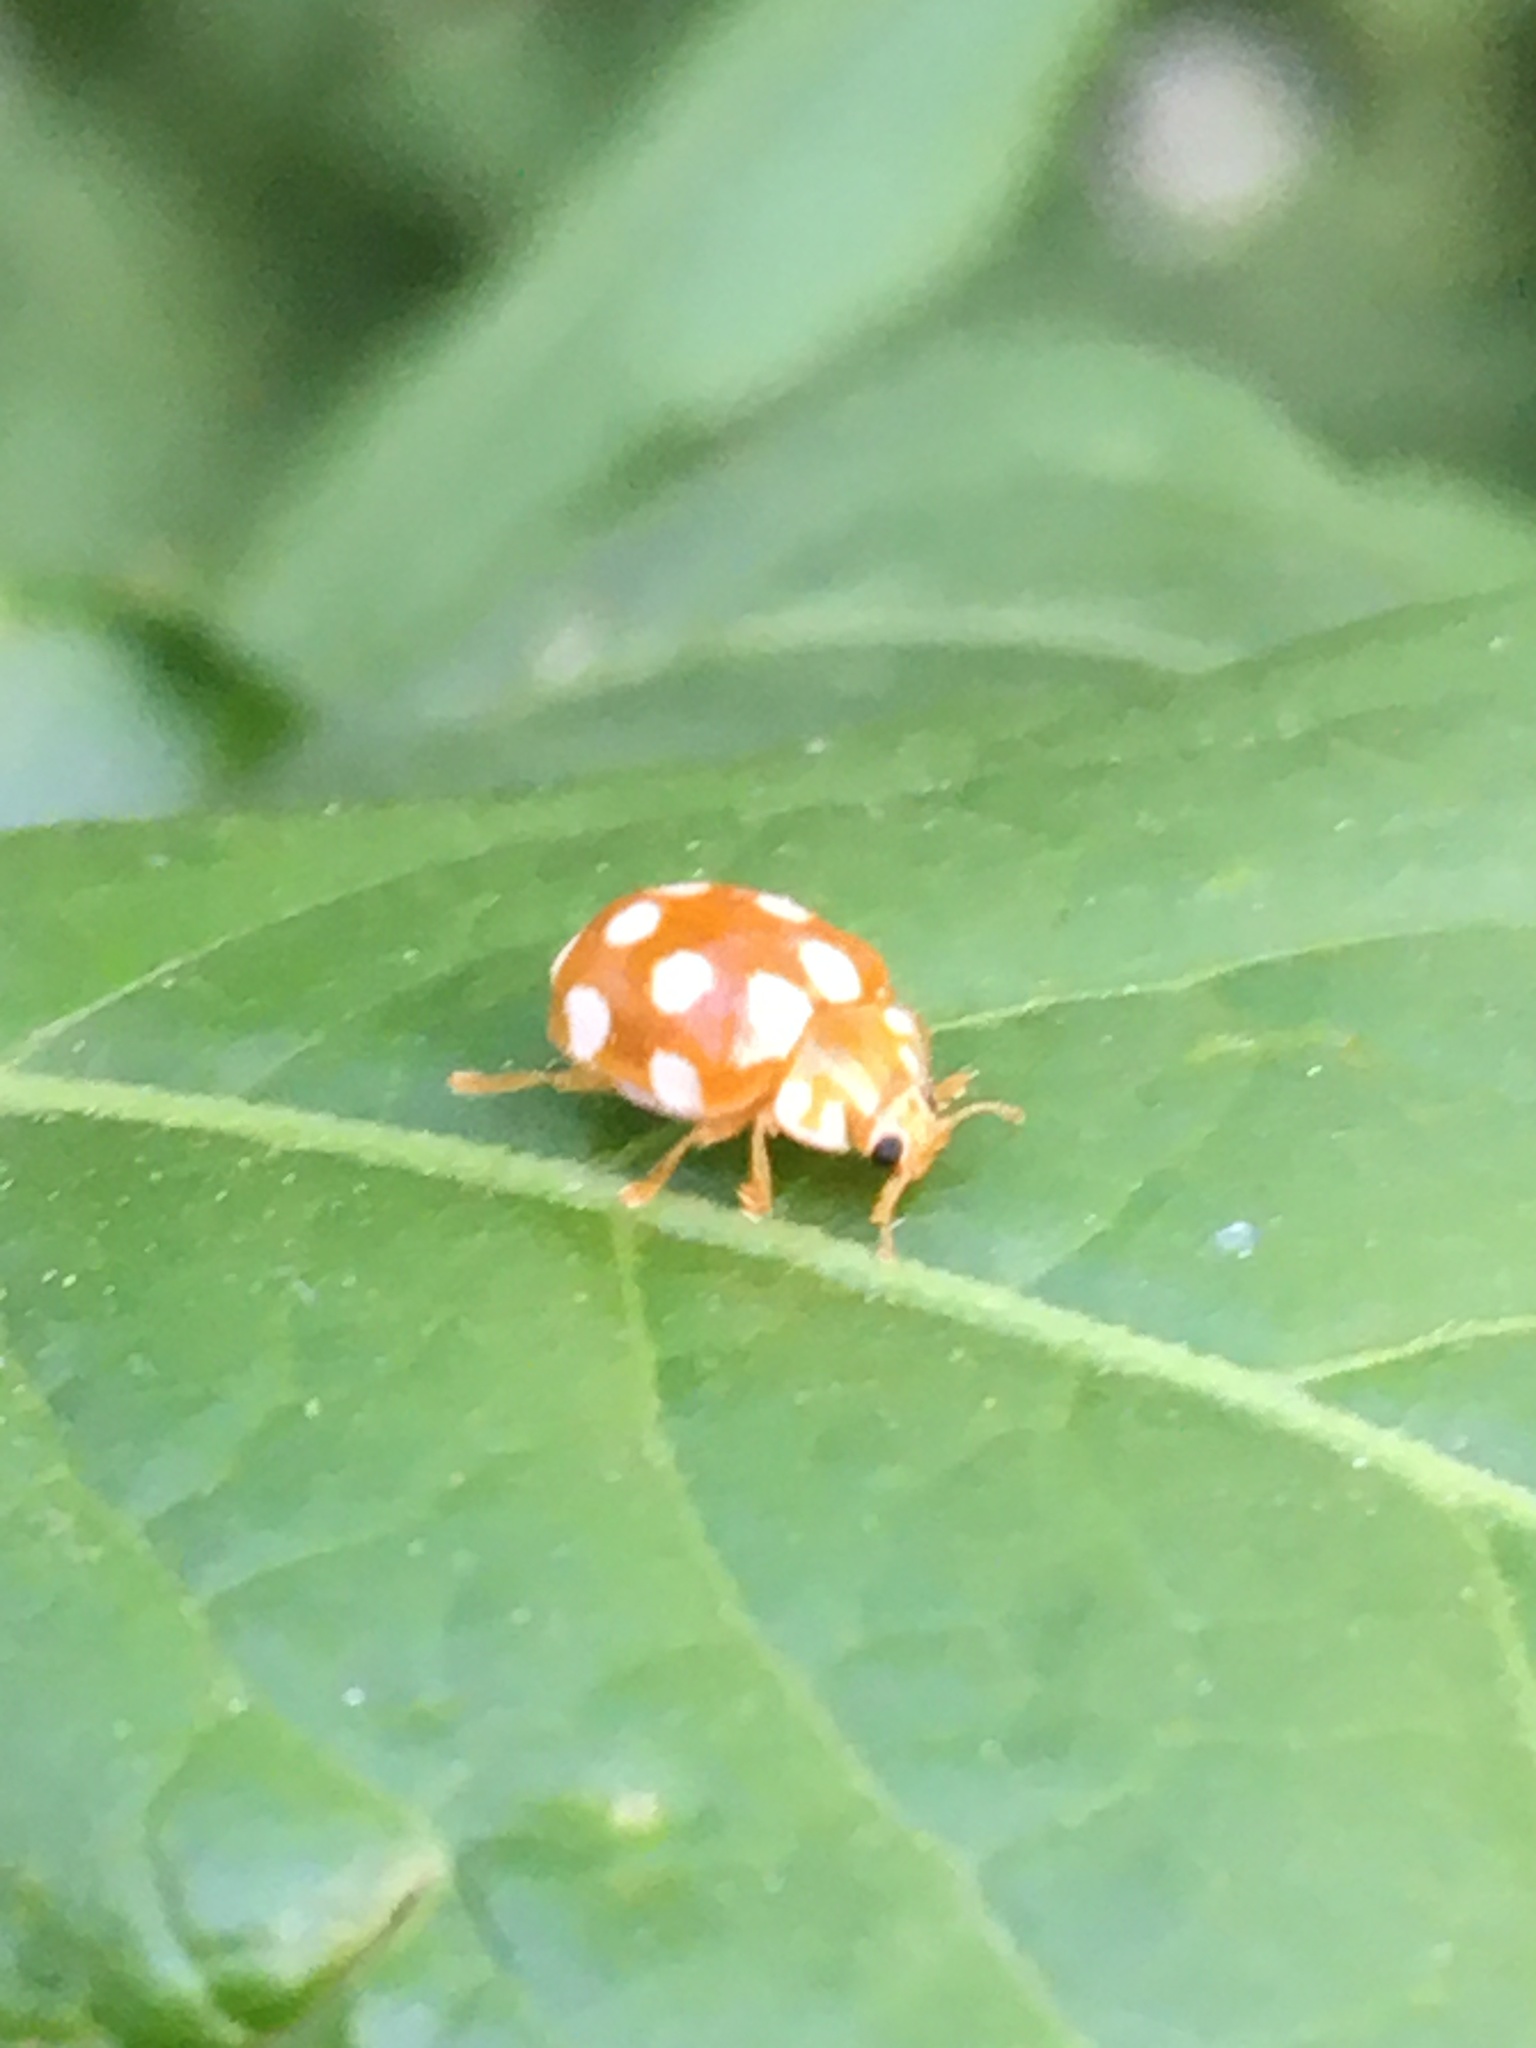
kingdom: Animalia
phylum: Arthropoda
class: Insecta
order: Coleoptera
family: Coccinellidae
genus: Vibidia
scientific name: Vibidia duodecimguttata
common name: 12-spot ladybird
